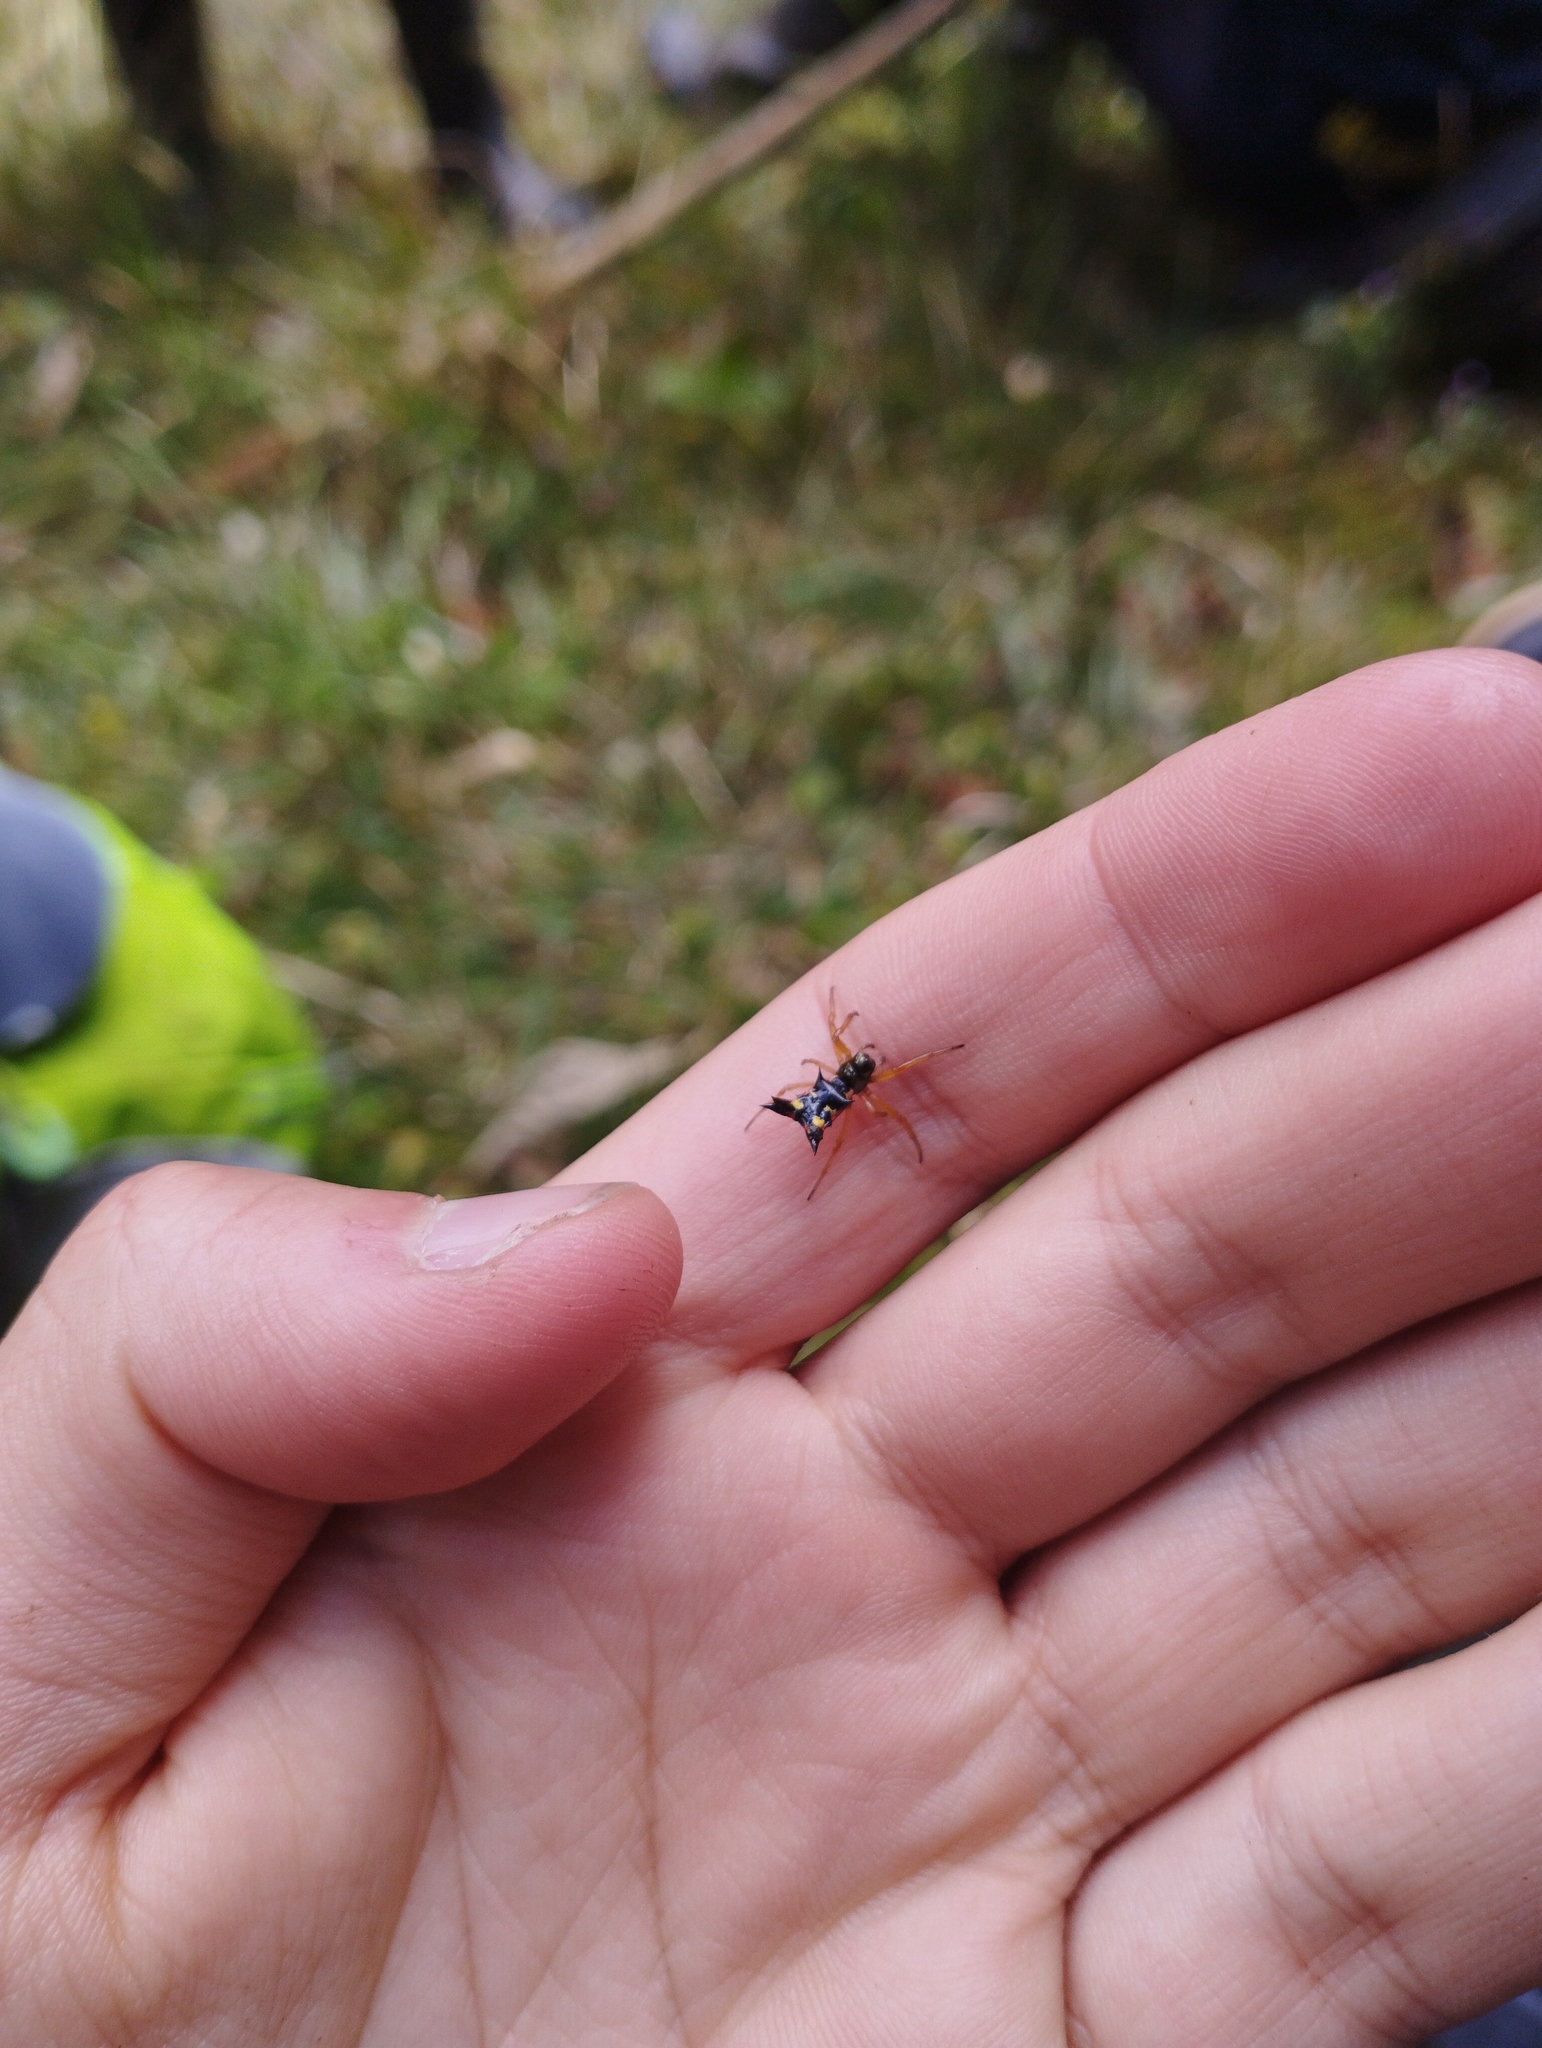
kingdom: Animalia
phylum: Arthropoda
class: Arachnida
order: Araneae
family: Araneidae
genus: Micrathena
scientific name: Micrathena crassa
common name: Orb weavers
